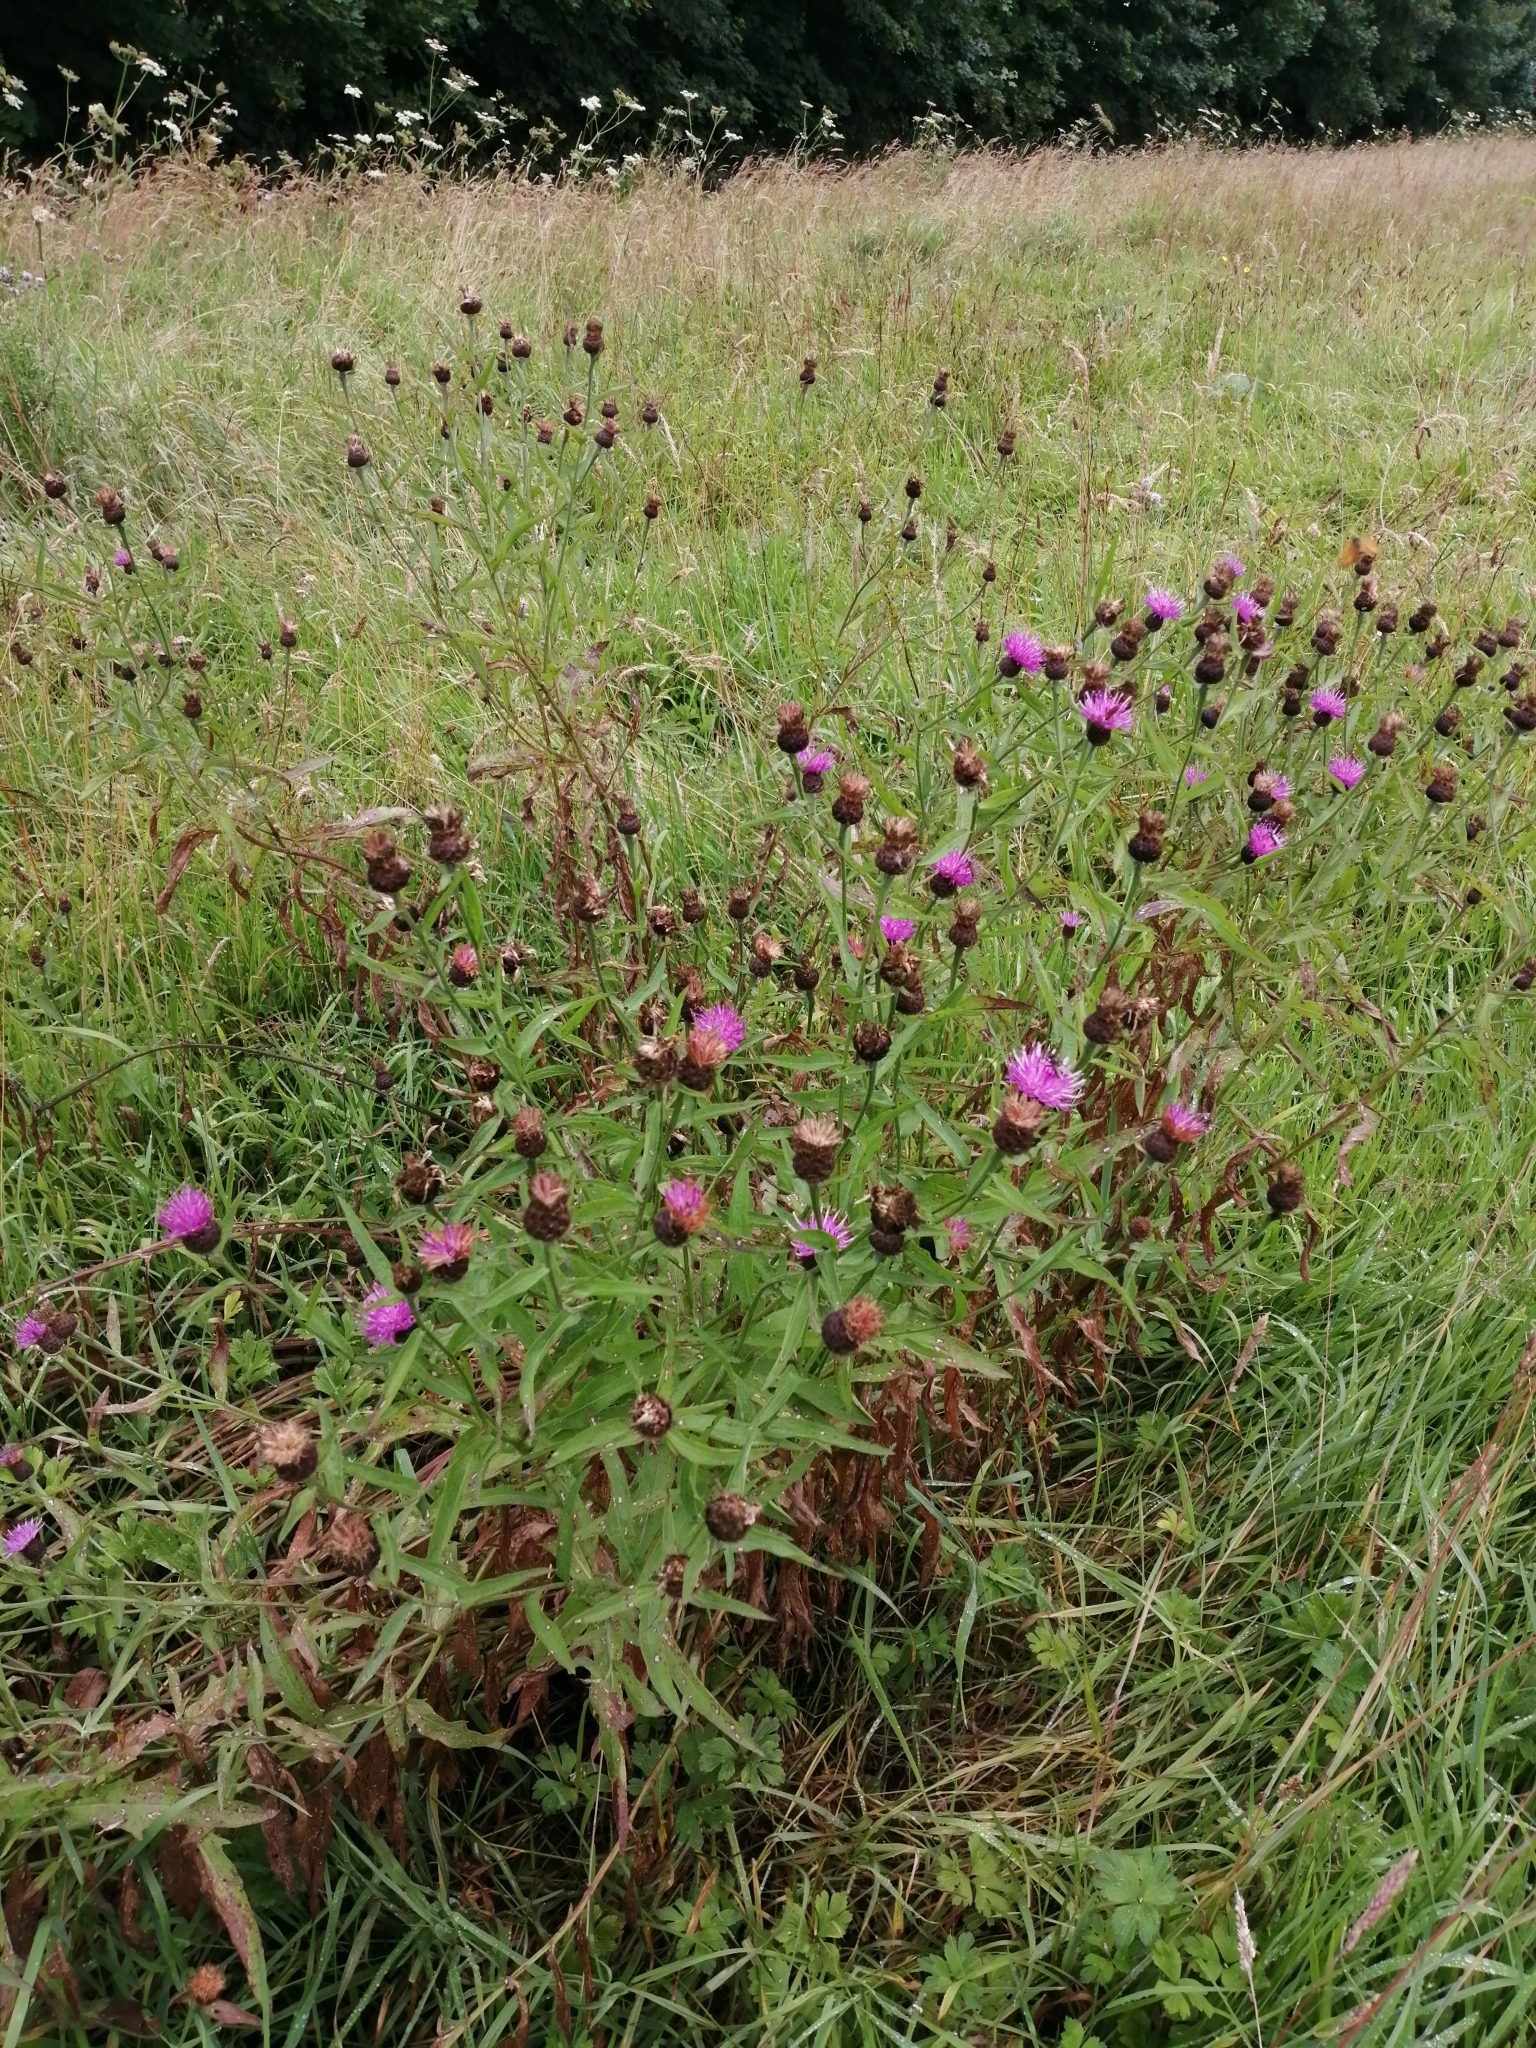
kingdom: Plantae
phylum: Tracheophyta
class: Magnoliopsida
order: Asterales
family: Asteraceae
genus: Centaurea
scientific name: Centaurea nigra
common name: Lesser knapweed
